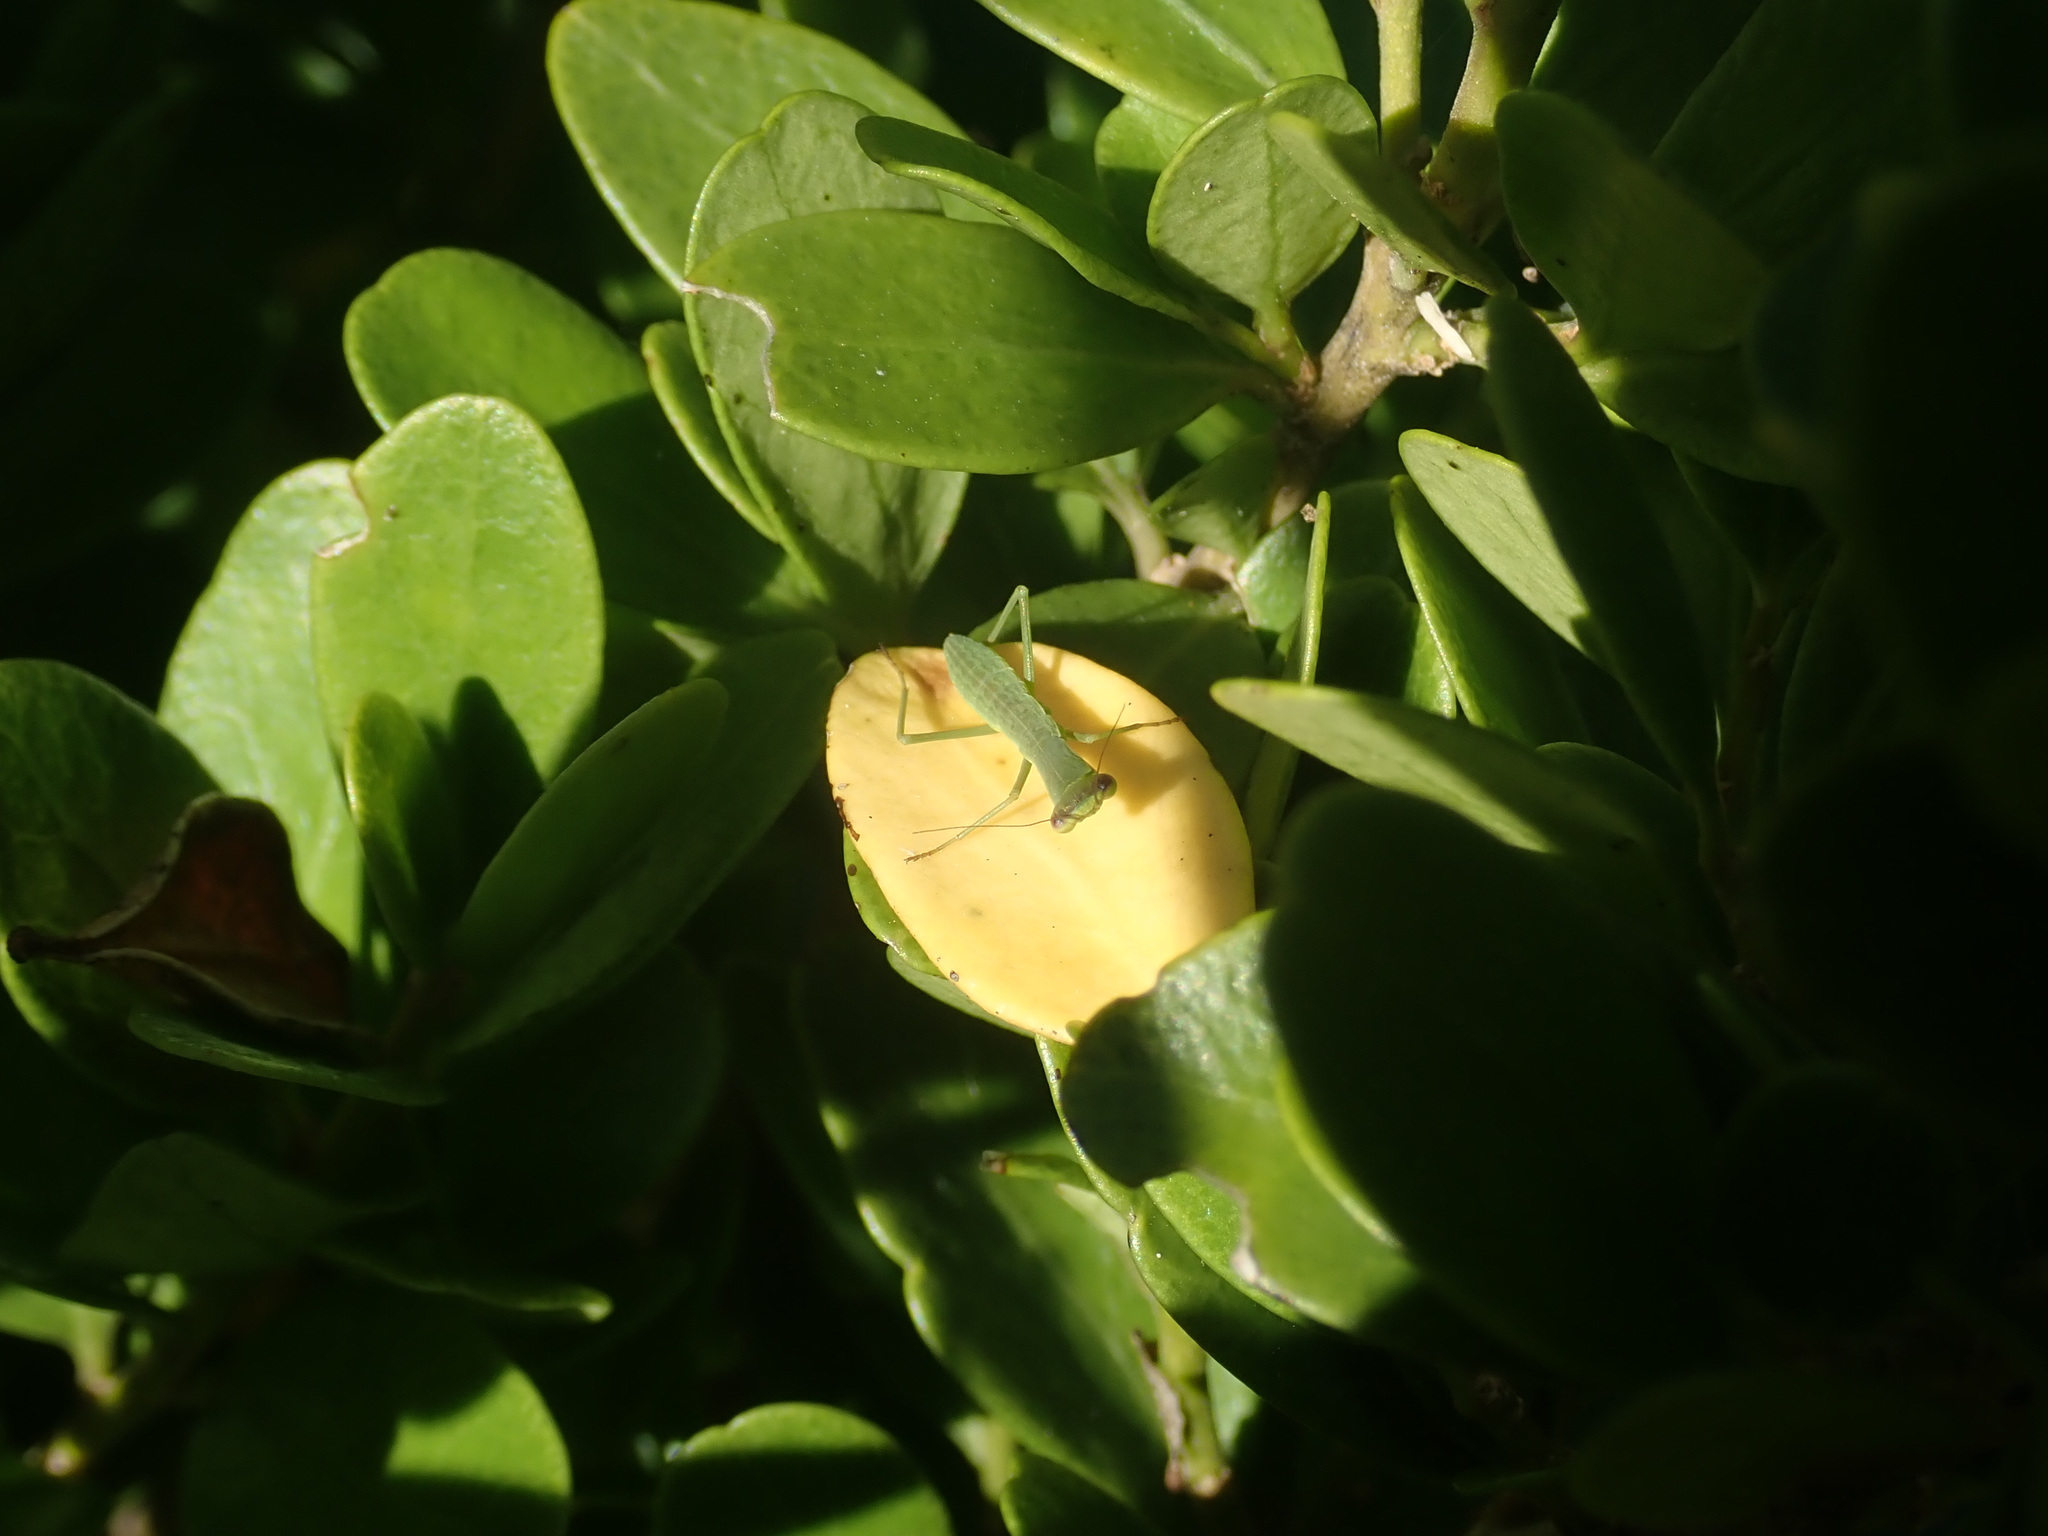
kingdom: Animalia
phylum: Arthropoda
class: Insecta
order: Mantodea
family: Mantidae
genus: Orthodera
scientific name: Orthodera novaezealandiae
